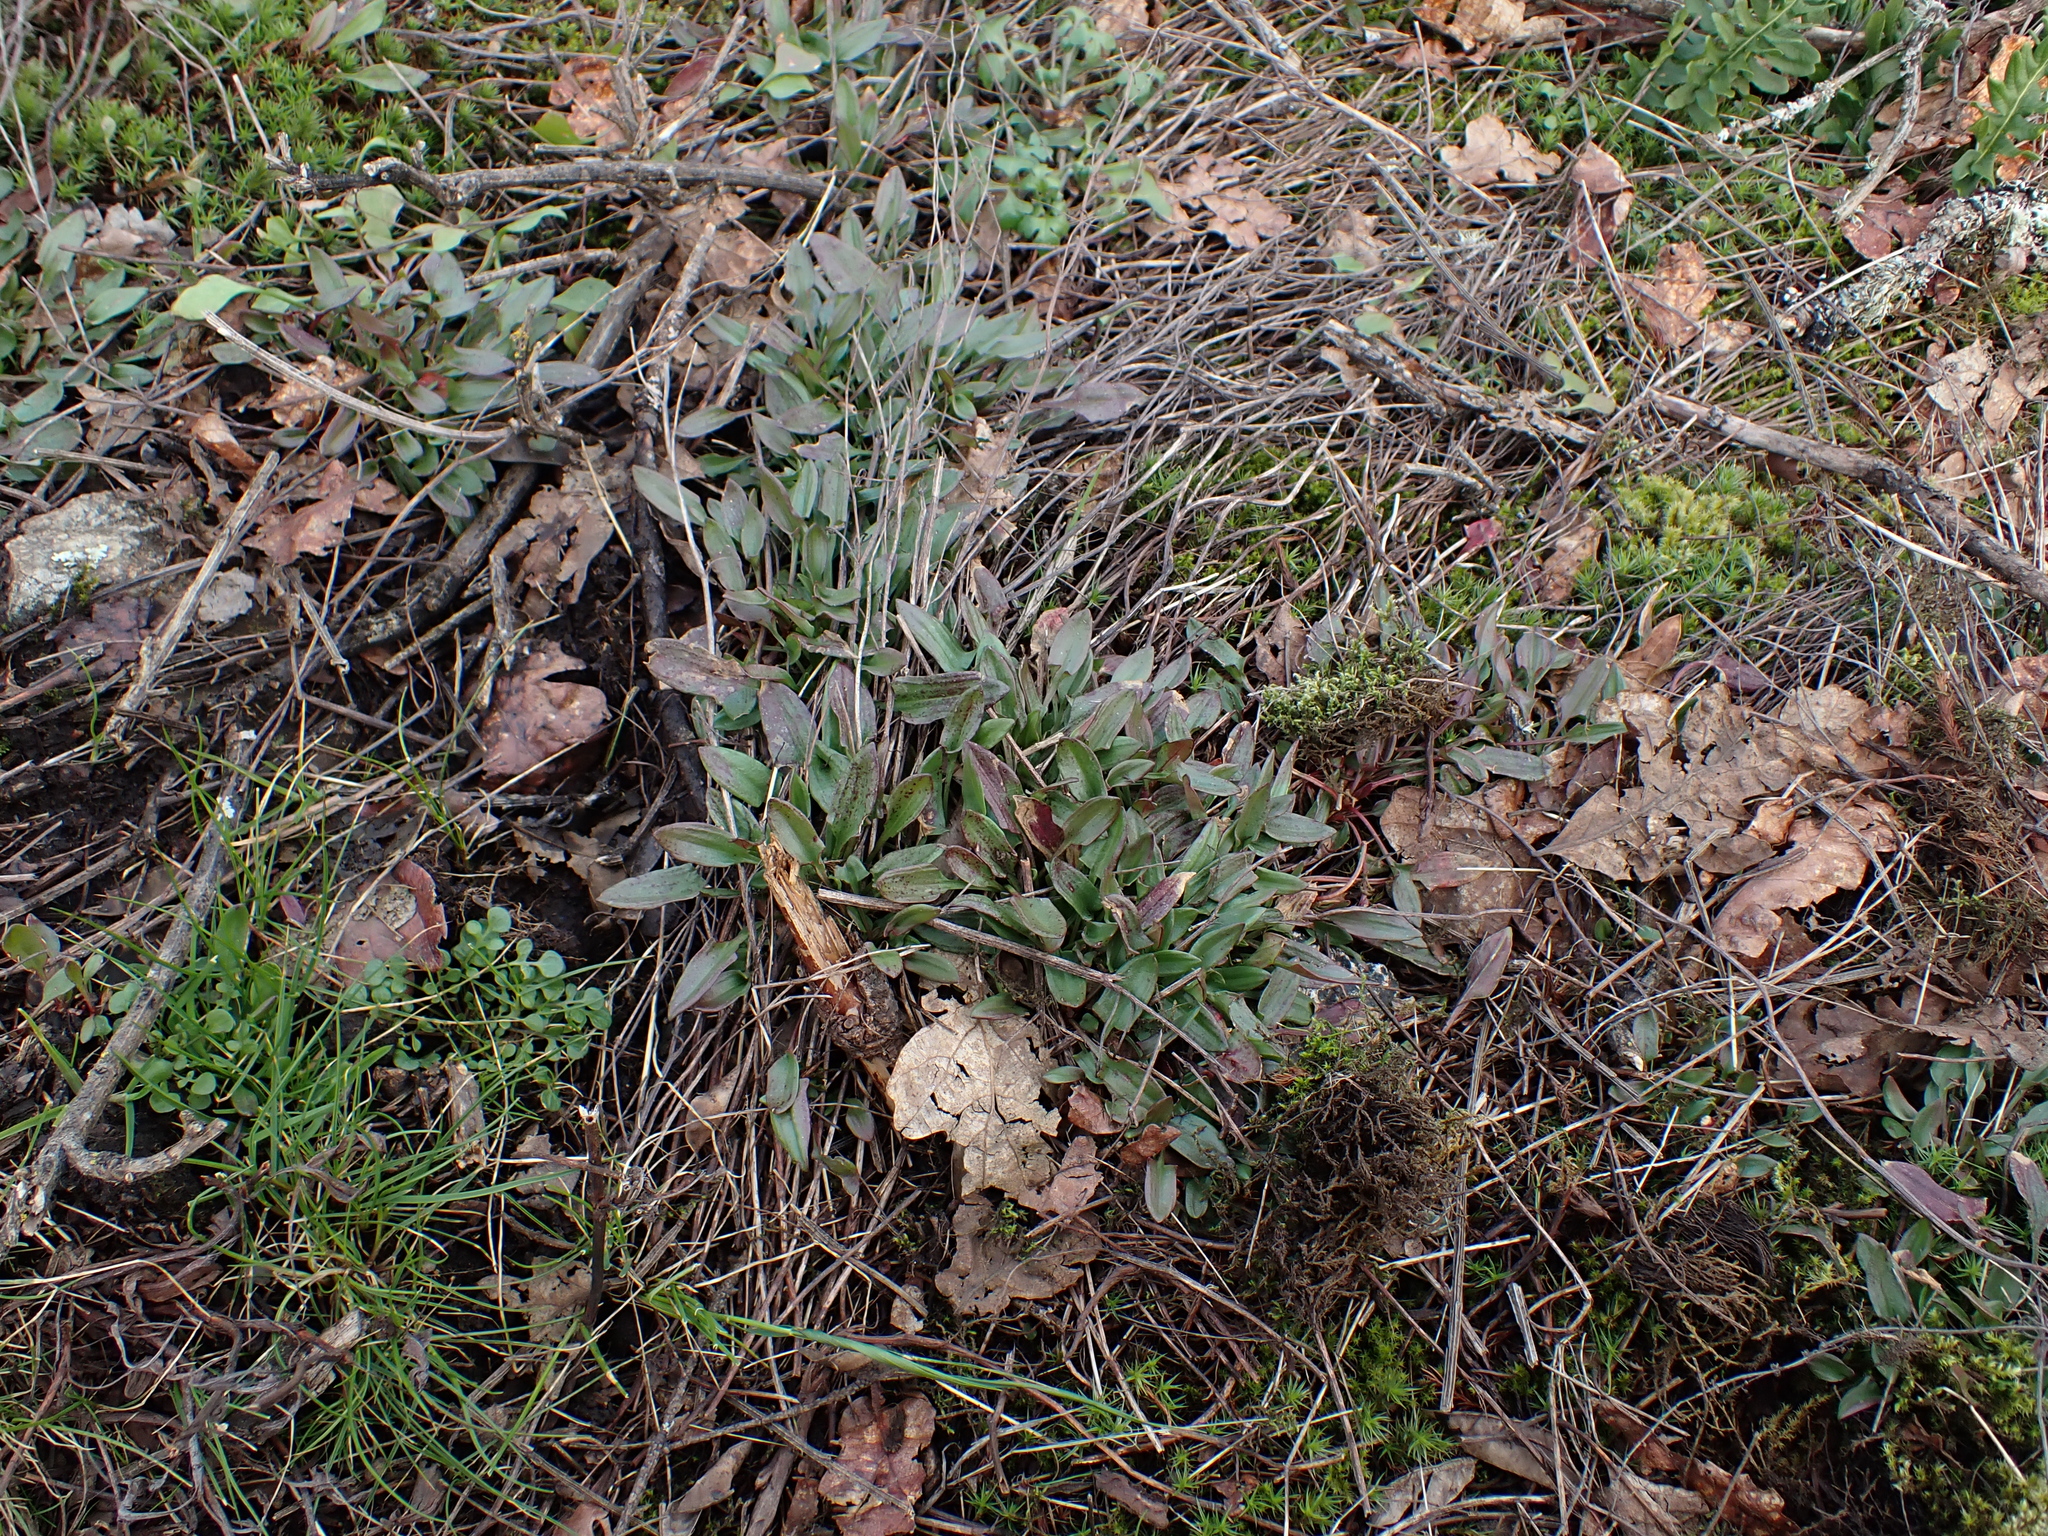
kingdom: Plantae
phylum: Tracheophyta
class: Magnoliopsida
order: Caryophyllales
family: Polygonaceae
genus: Rumex
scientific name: Rumex acetosella
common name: Common sheep sorrel
